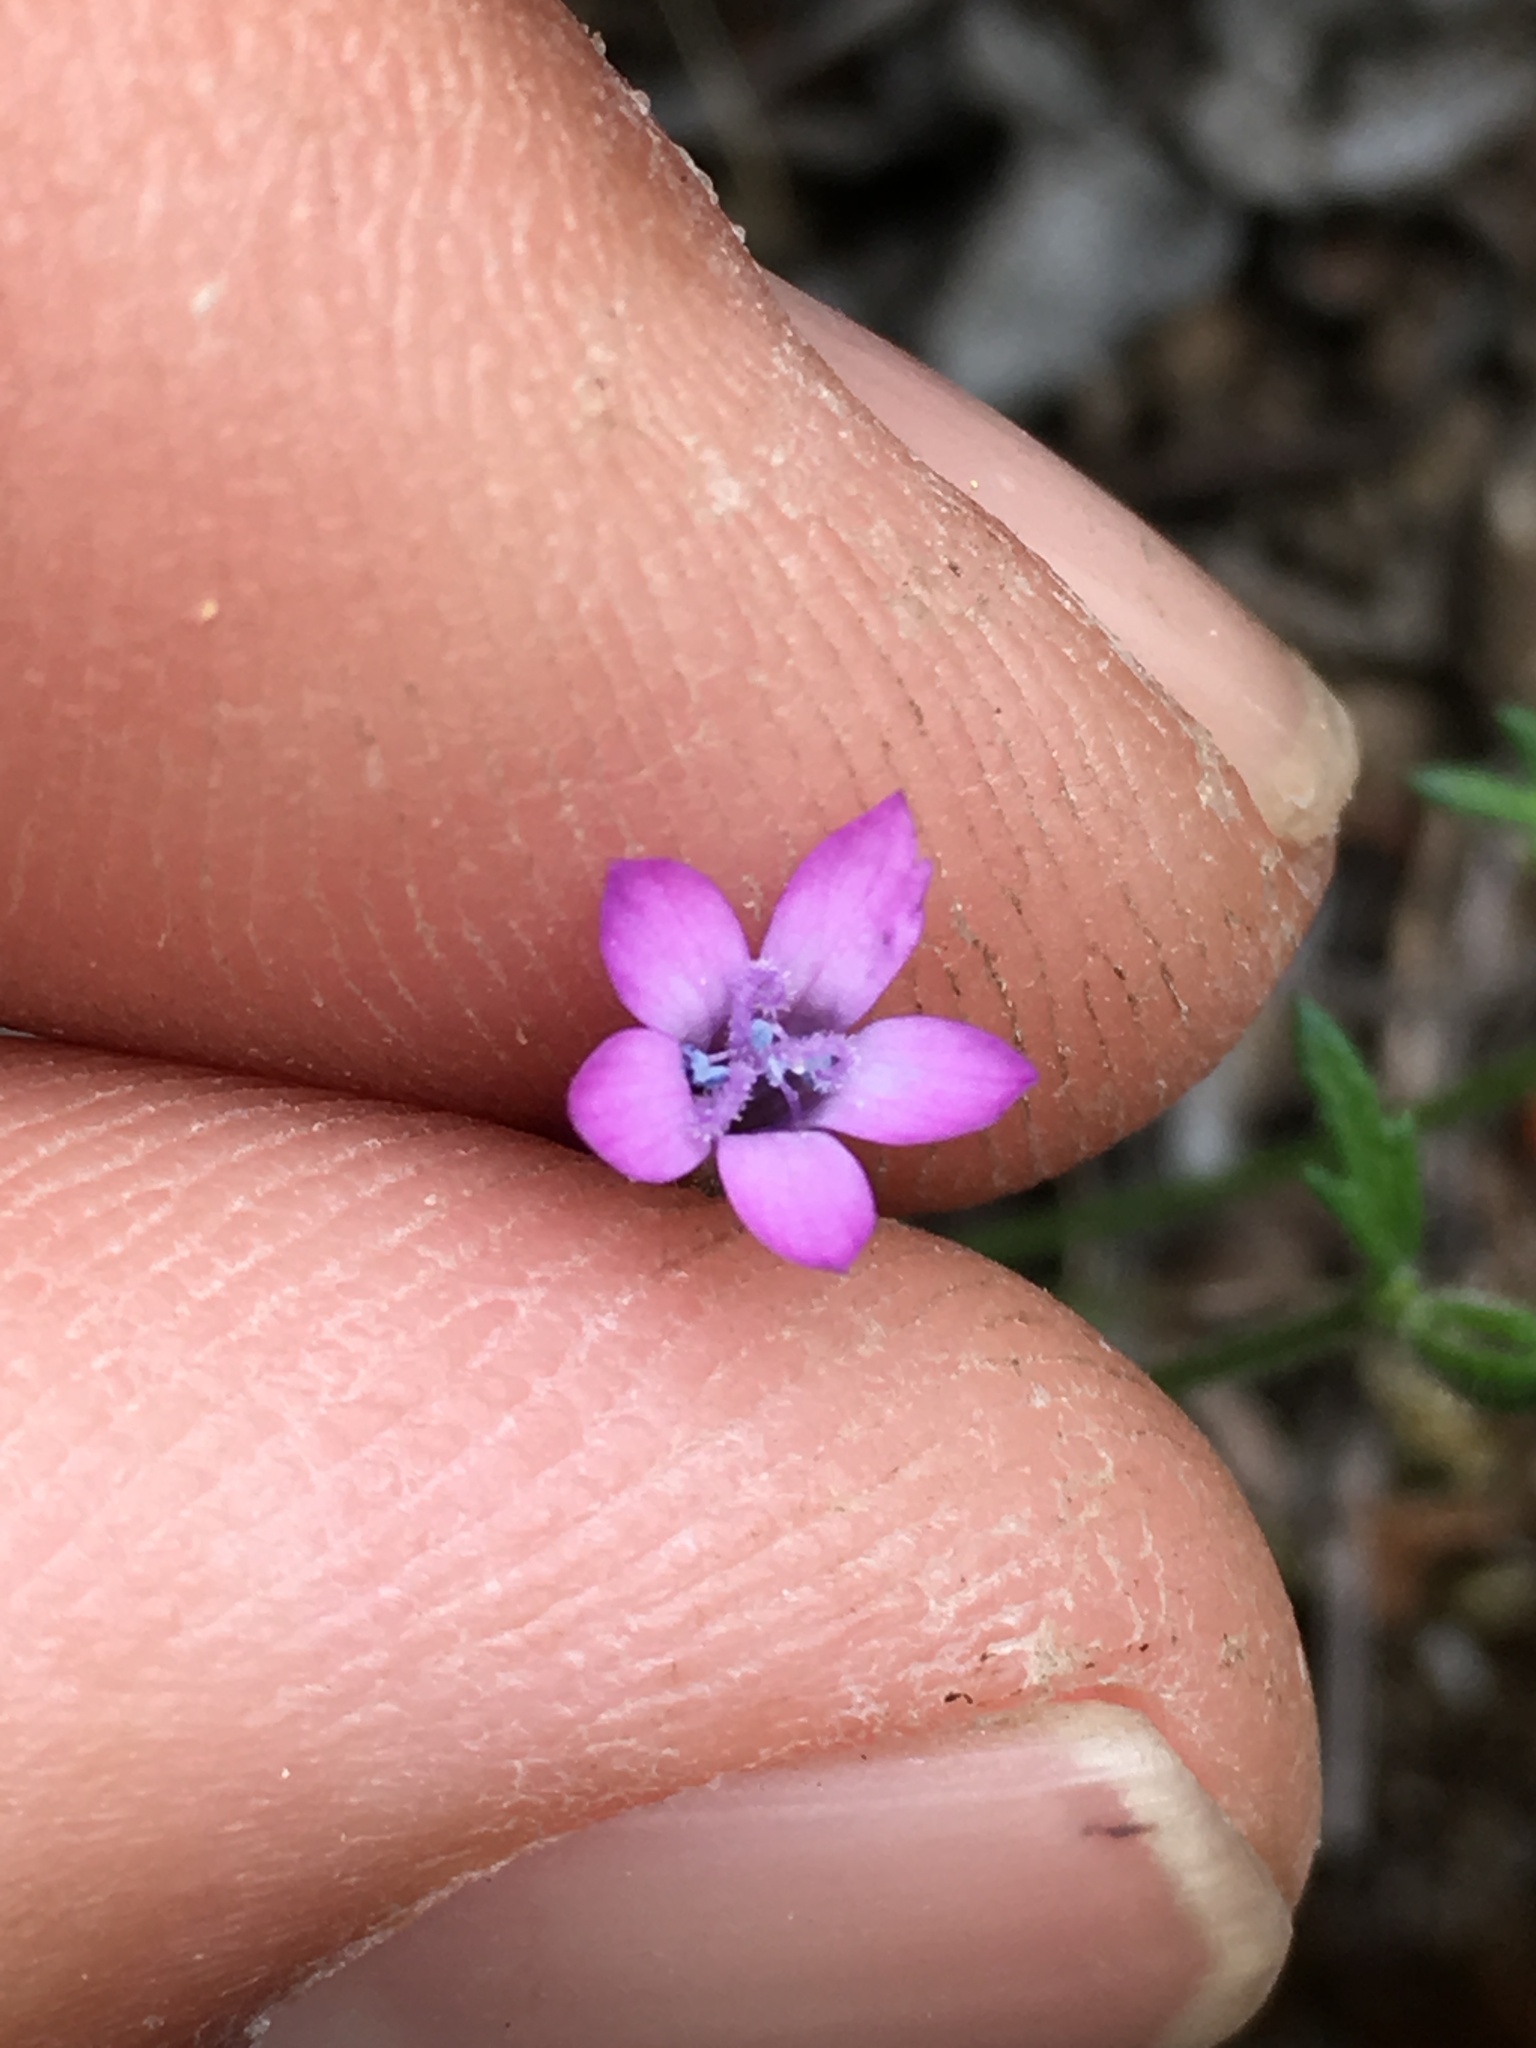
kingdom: Plantae
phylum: Tracheophyta
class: Magnoliopsida
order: Ericales
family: Polemoniaceae
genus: Gilia
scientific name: Gilia nevinii
